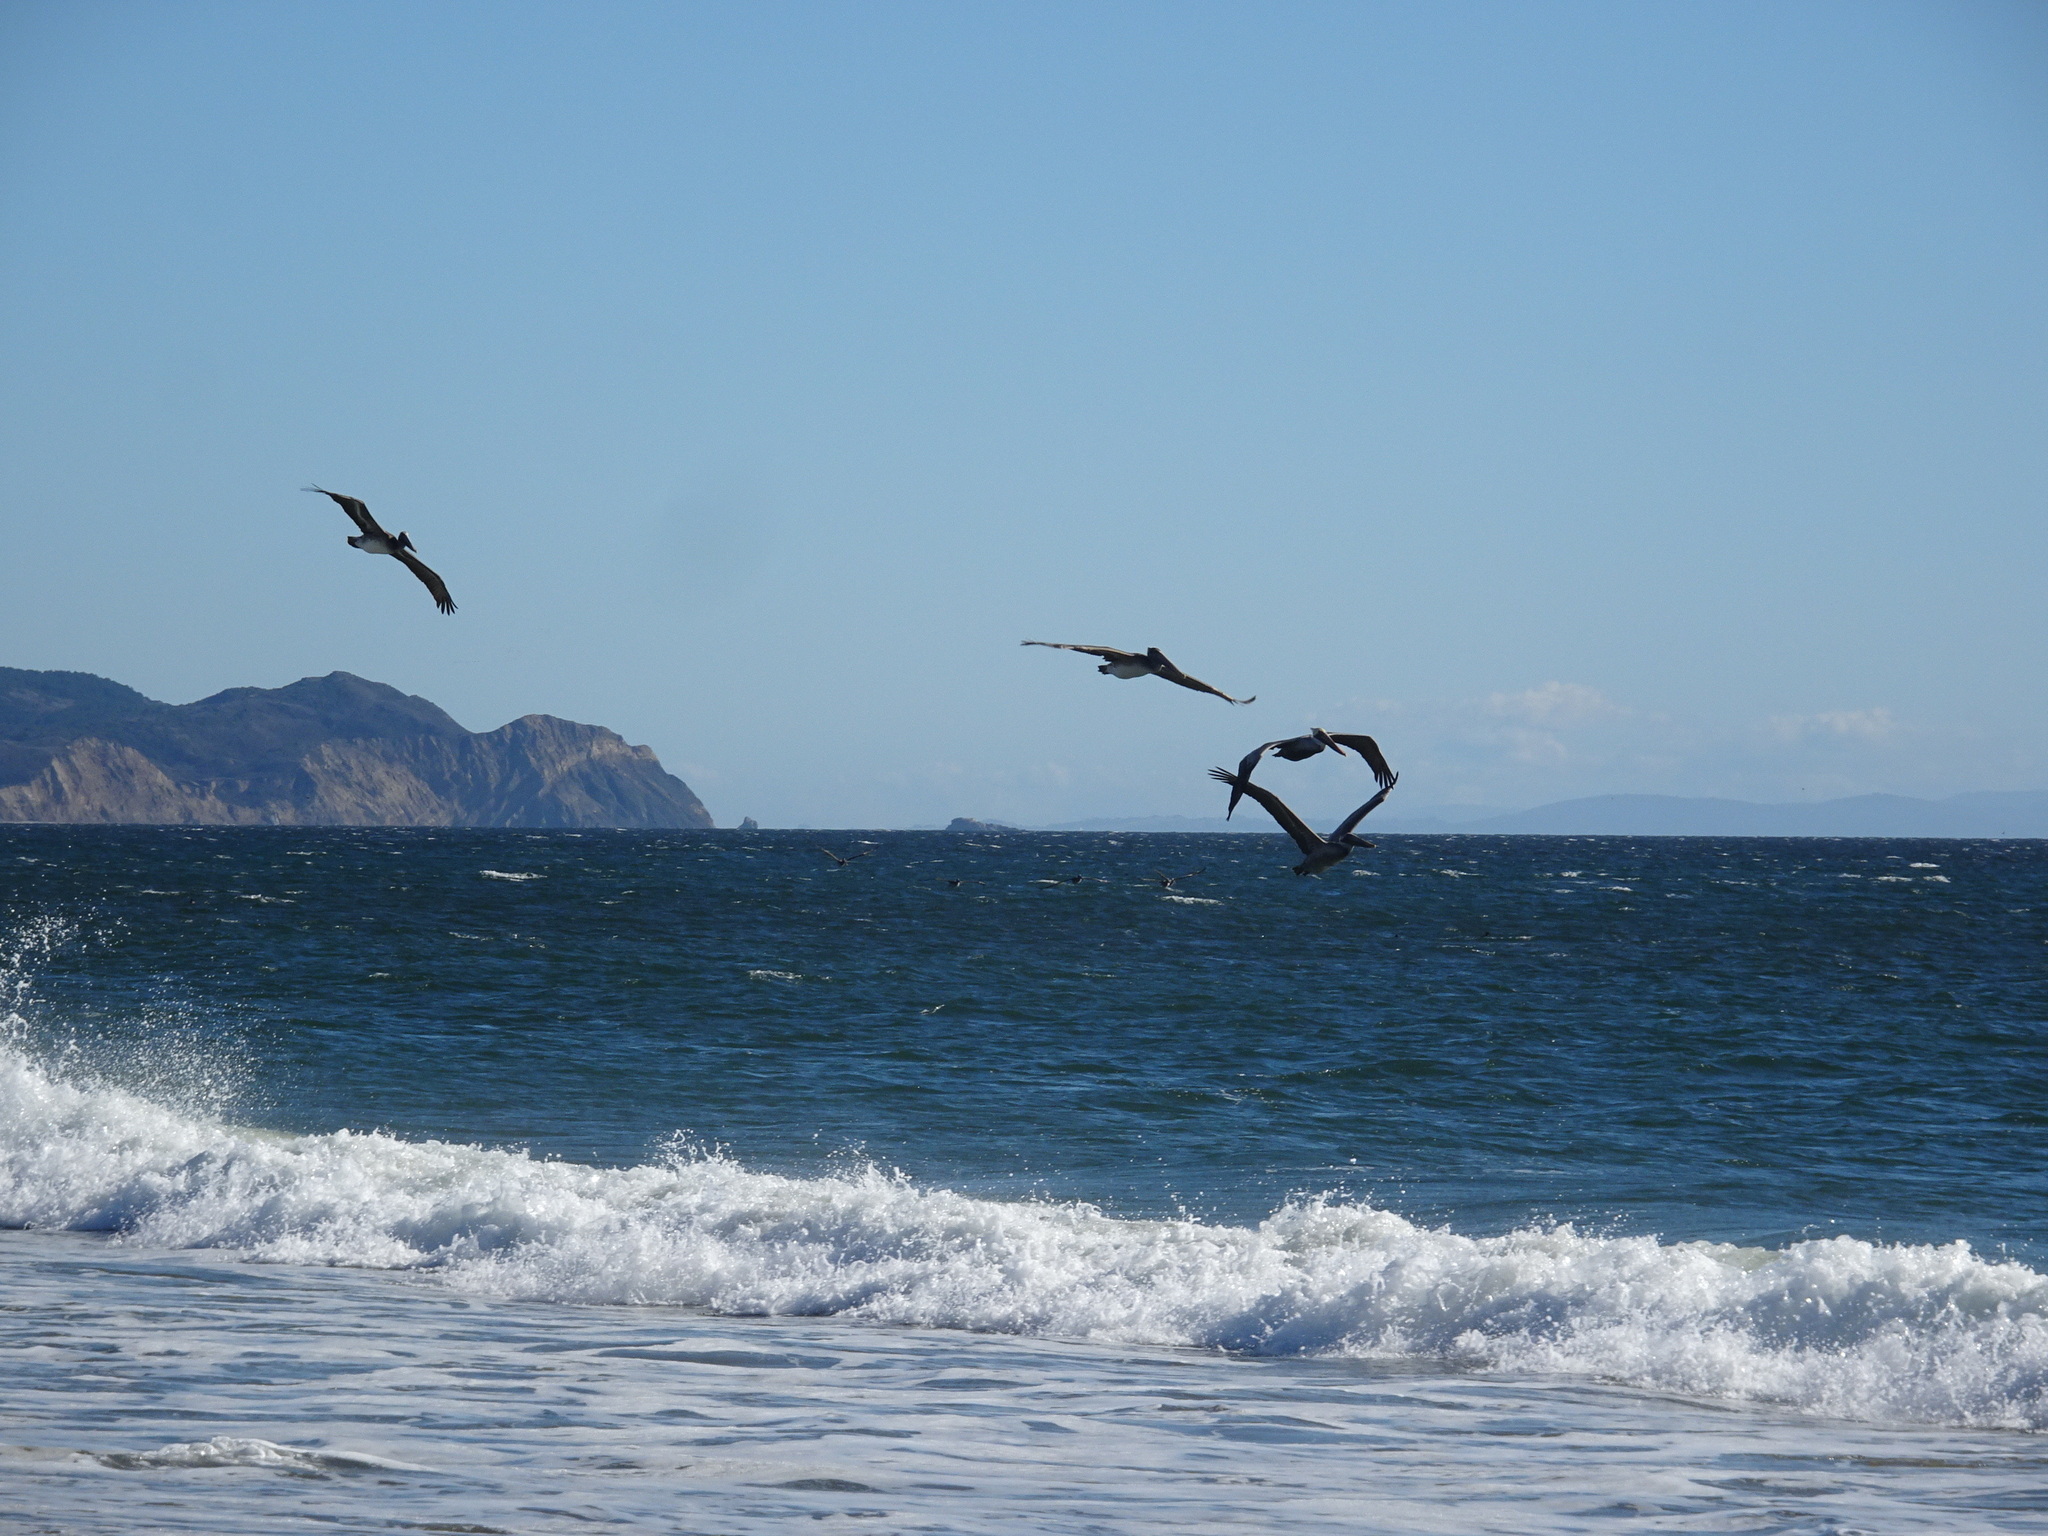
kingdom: Animalia
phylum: Chordata
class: Aves
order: Pelecaniformes
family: Pelecanidae
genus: Pelecanus
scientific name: Pelecanus occidentalis
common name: Brown pelican
